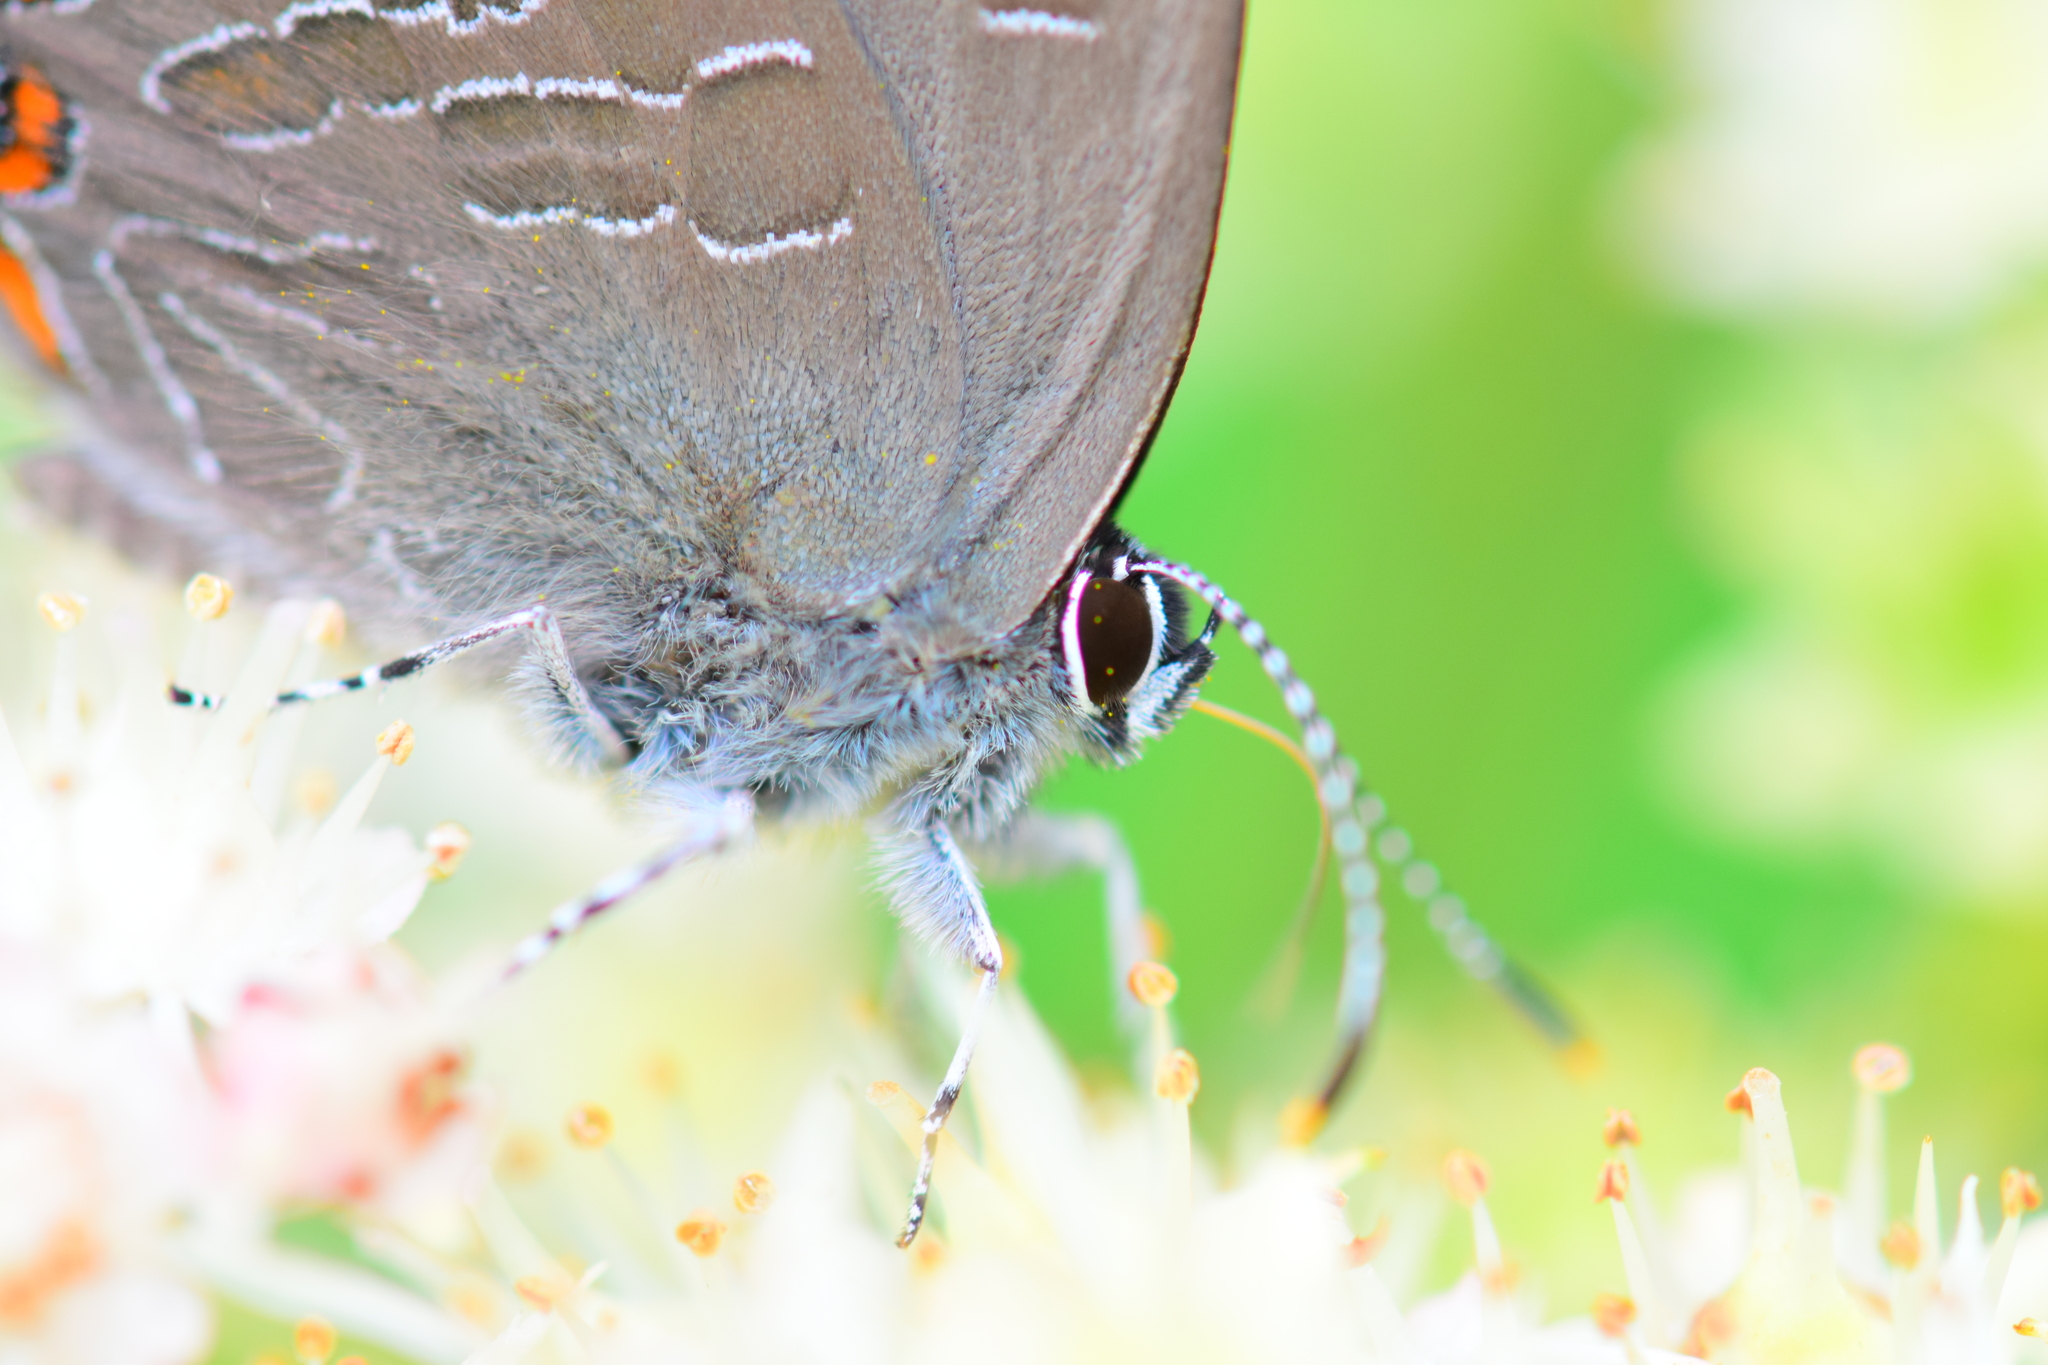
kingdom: Animalia
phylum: Arthropoda
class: Insecta
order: Lepidoptera
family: Lycaenidae
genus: Satyrium
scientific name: Satyrium liparops
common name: Striped hairstreak
